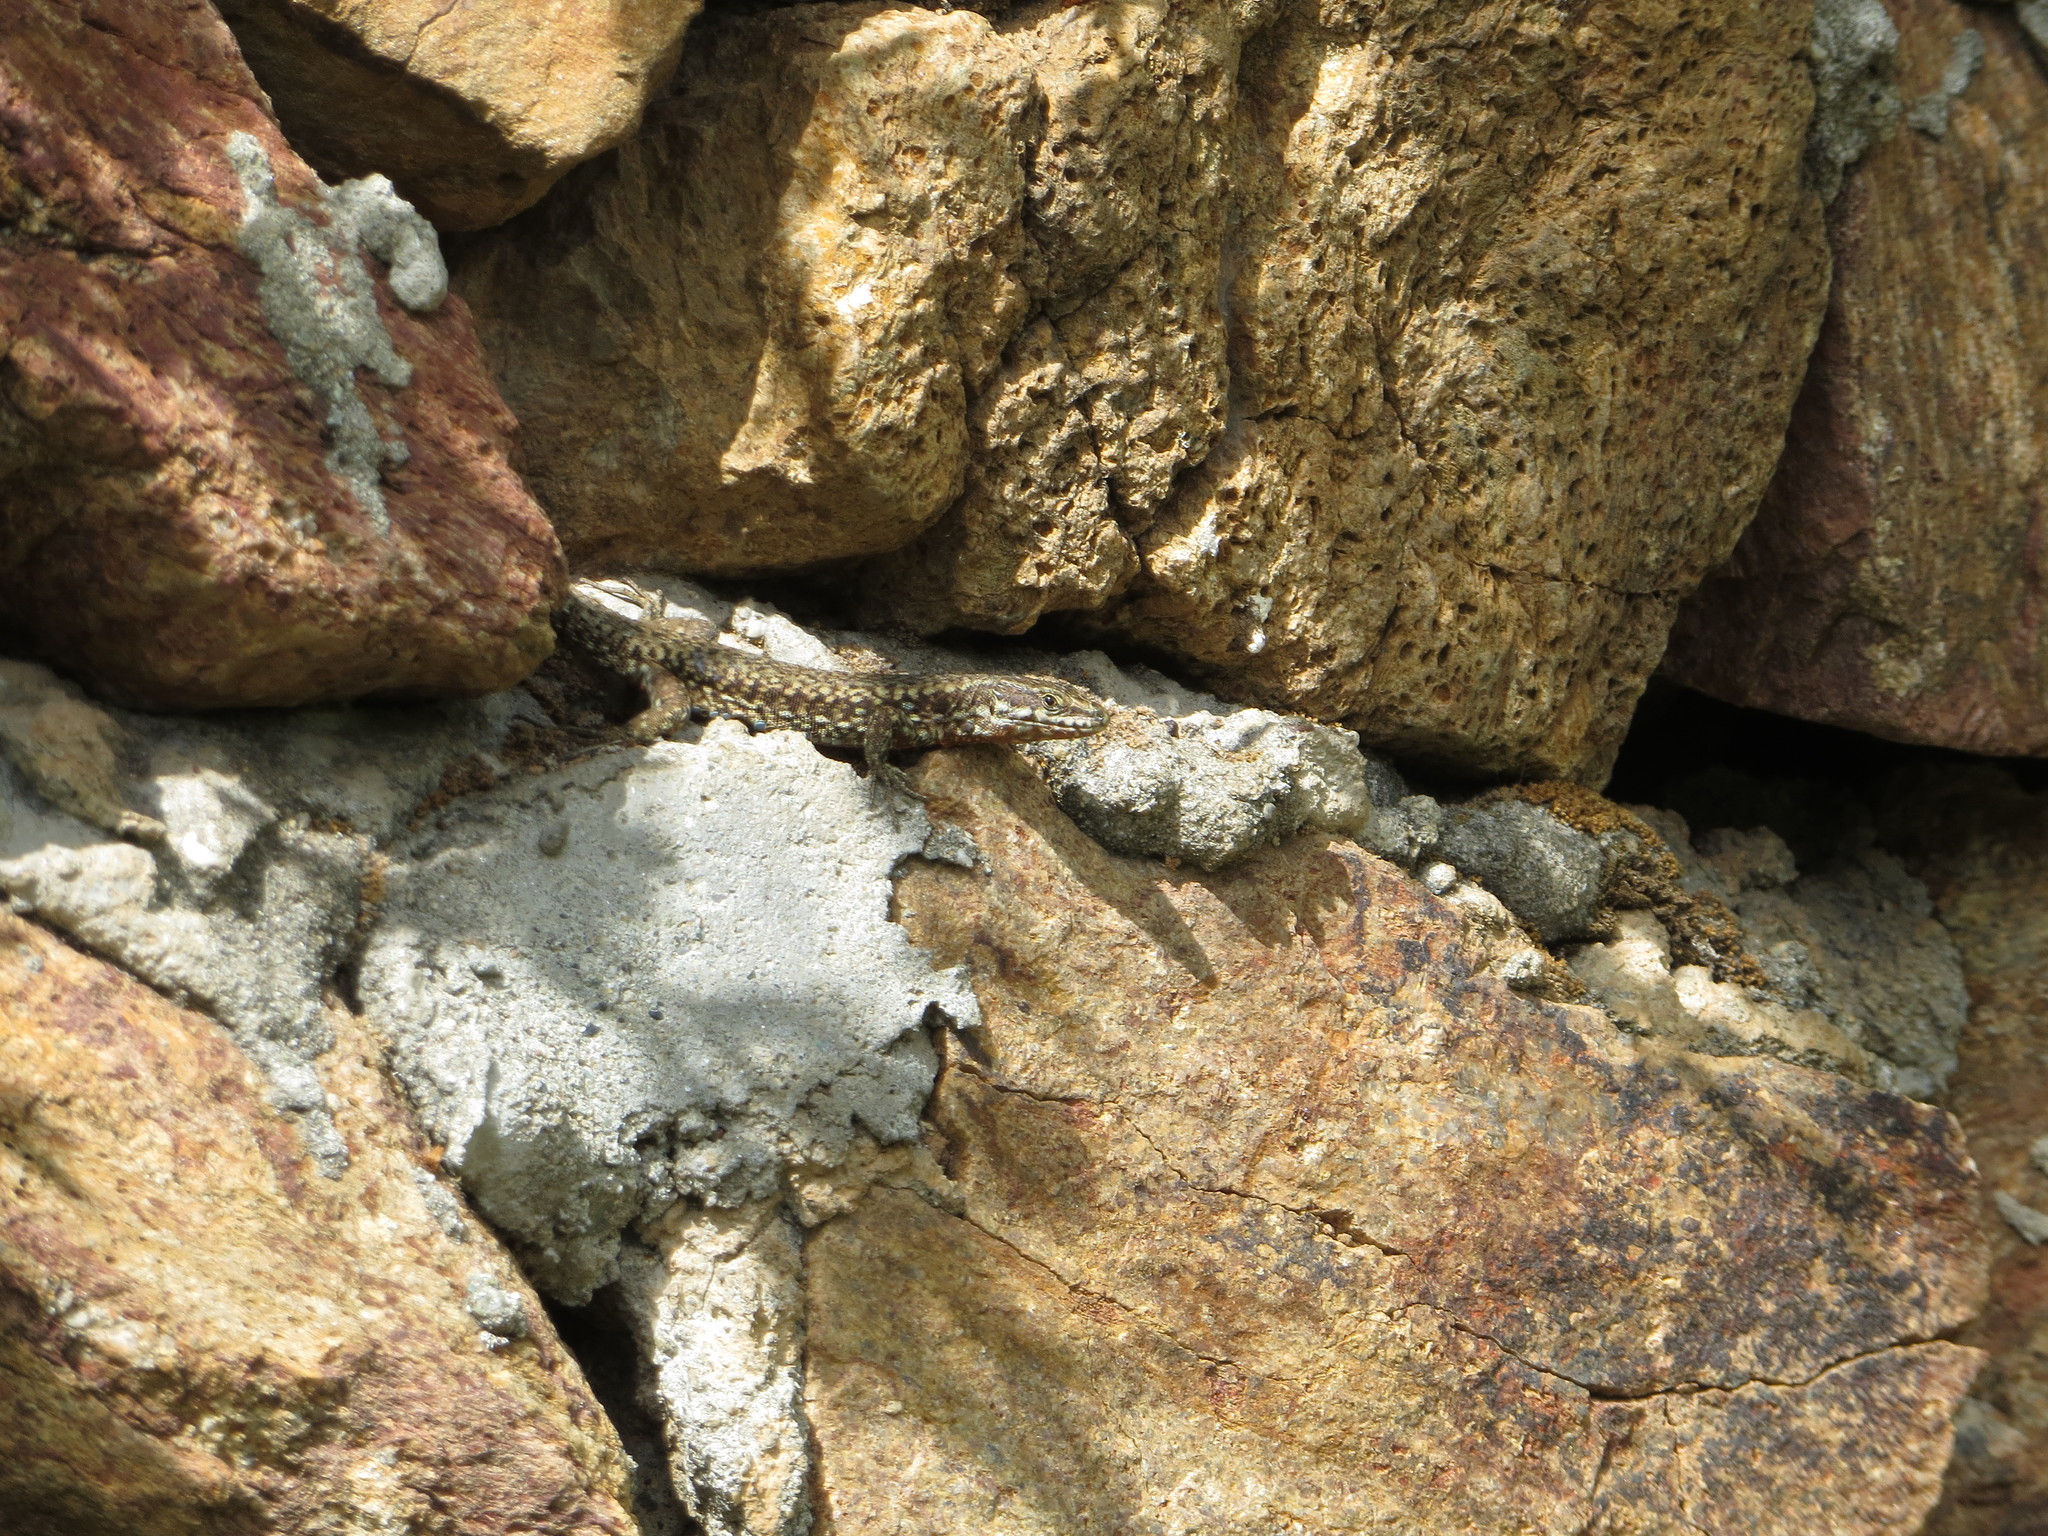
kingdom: Animalia
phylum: Chordata
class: Squamata
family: Lacertidae
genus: Podarcis
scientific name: Podarcis muralis
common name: Common wall lizard
